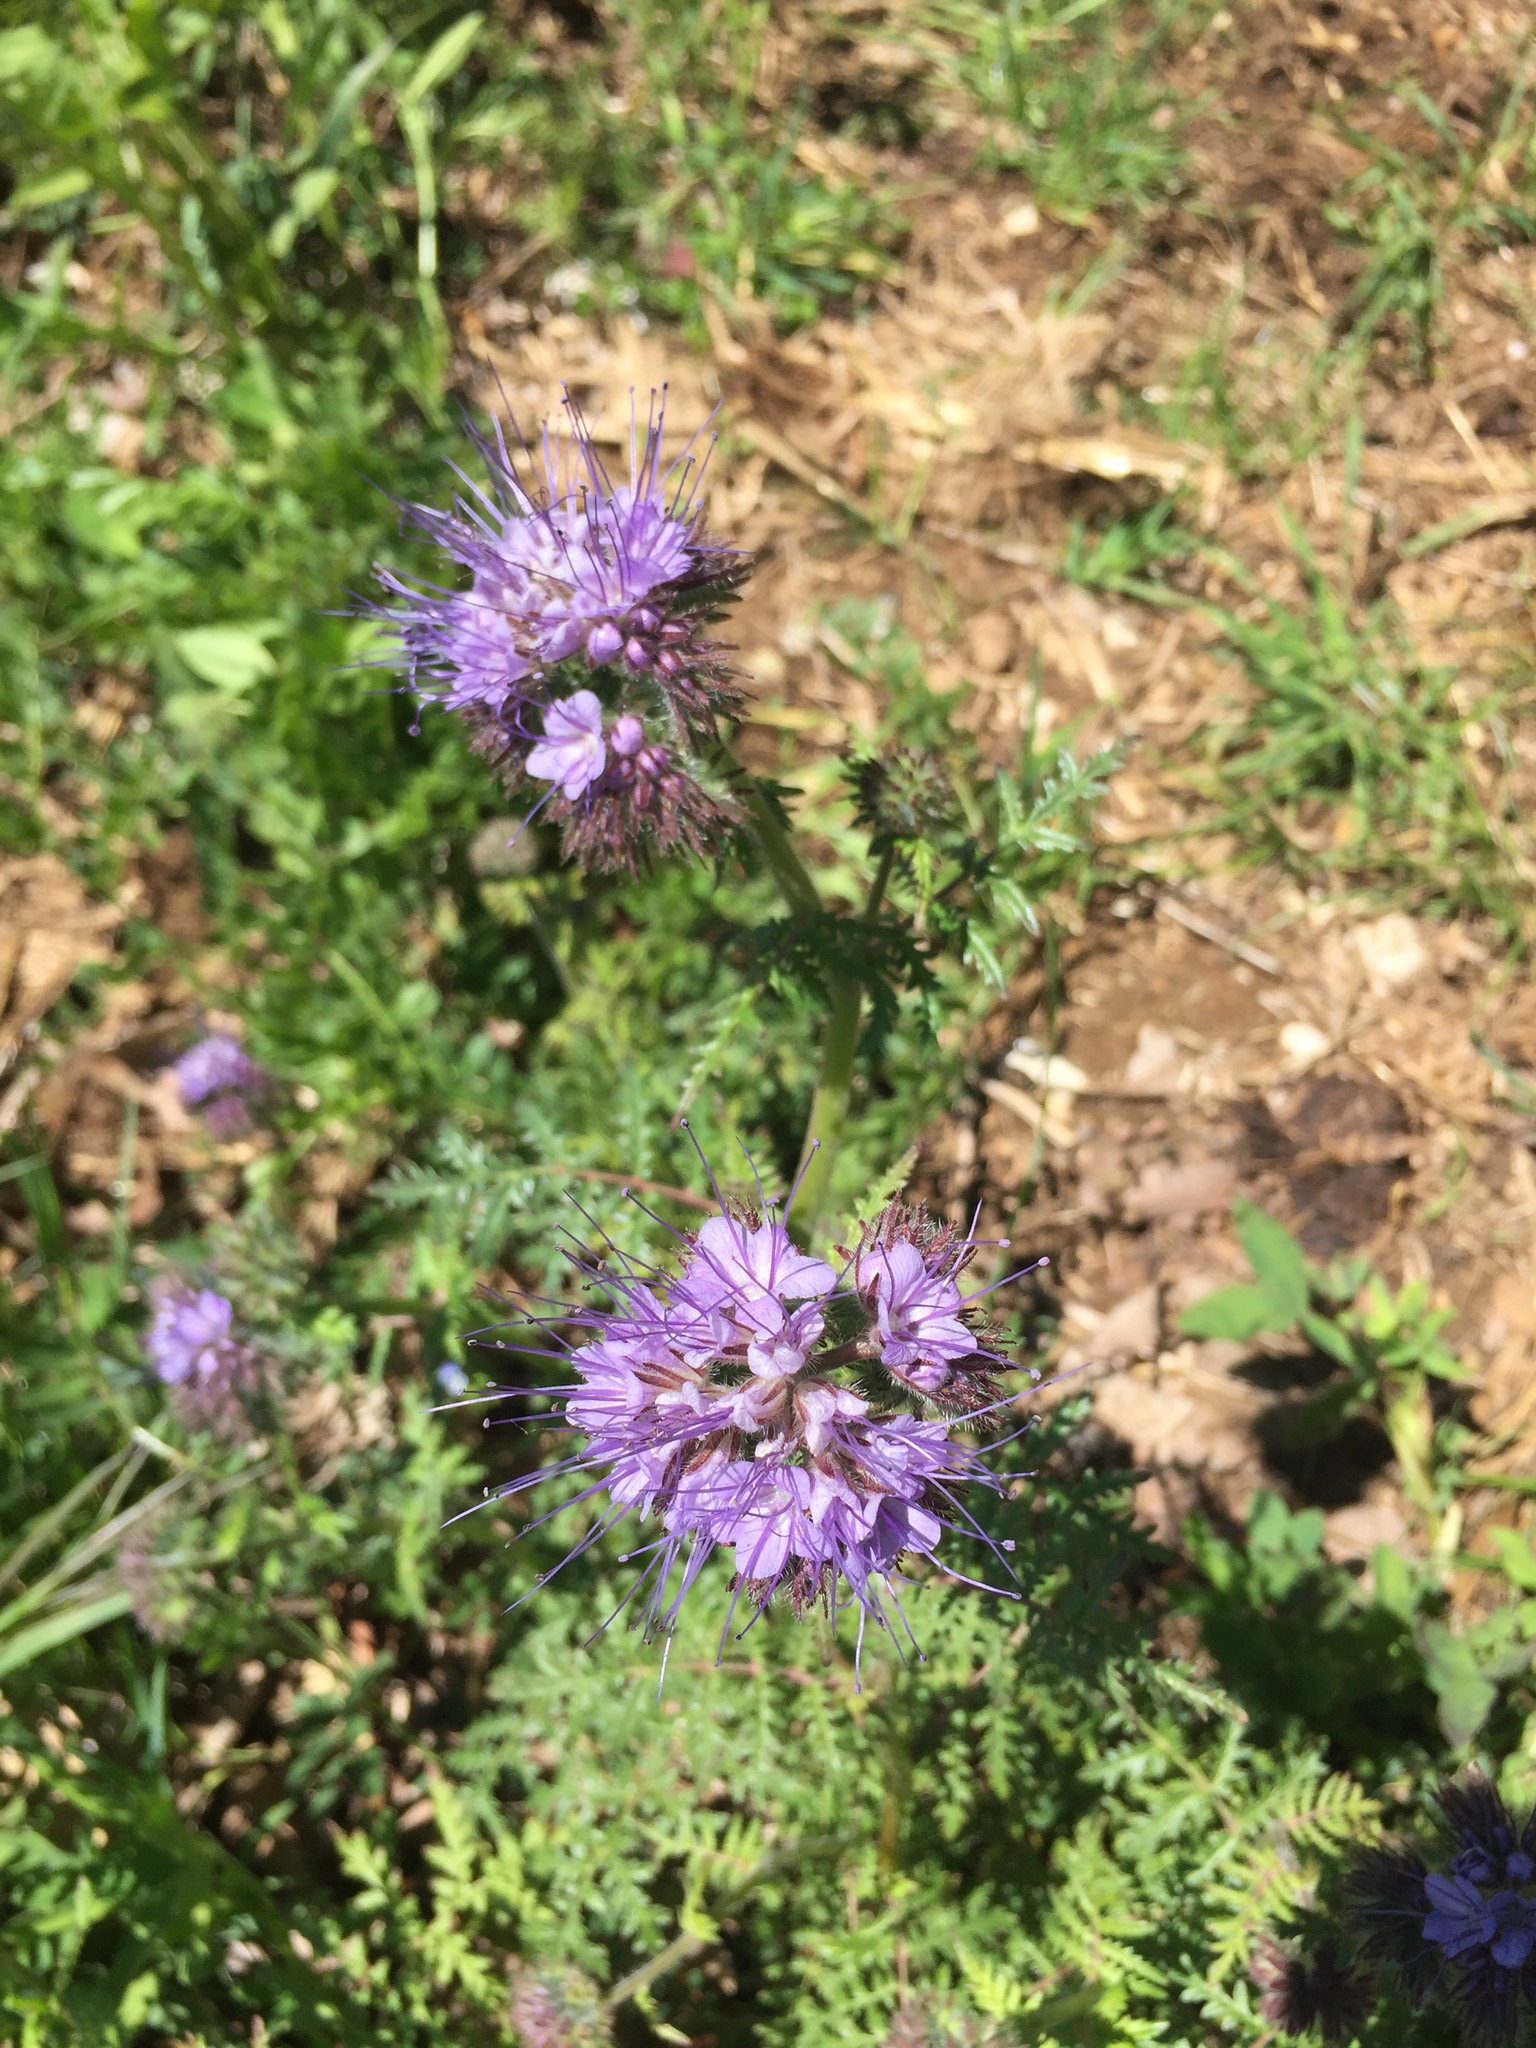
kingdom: Plantae
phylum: Tracheophyta
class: Magnoliopsida
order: Boraginales
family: Hydrophyllaceae
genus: Phacelia
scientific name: Phacelia tanacetifolia
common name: Phacelia
